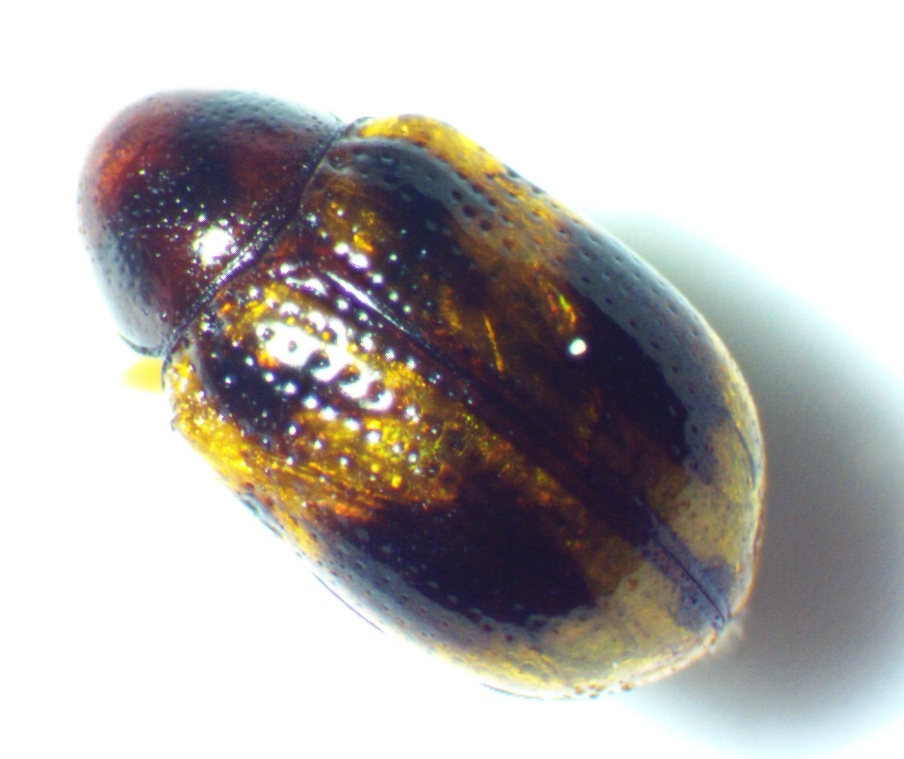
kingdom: Animalia
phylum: Arthropoda
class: Insecta
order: Coleoptera
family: Chrysomelidae
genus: Paria
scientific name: Paria fragariae
